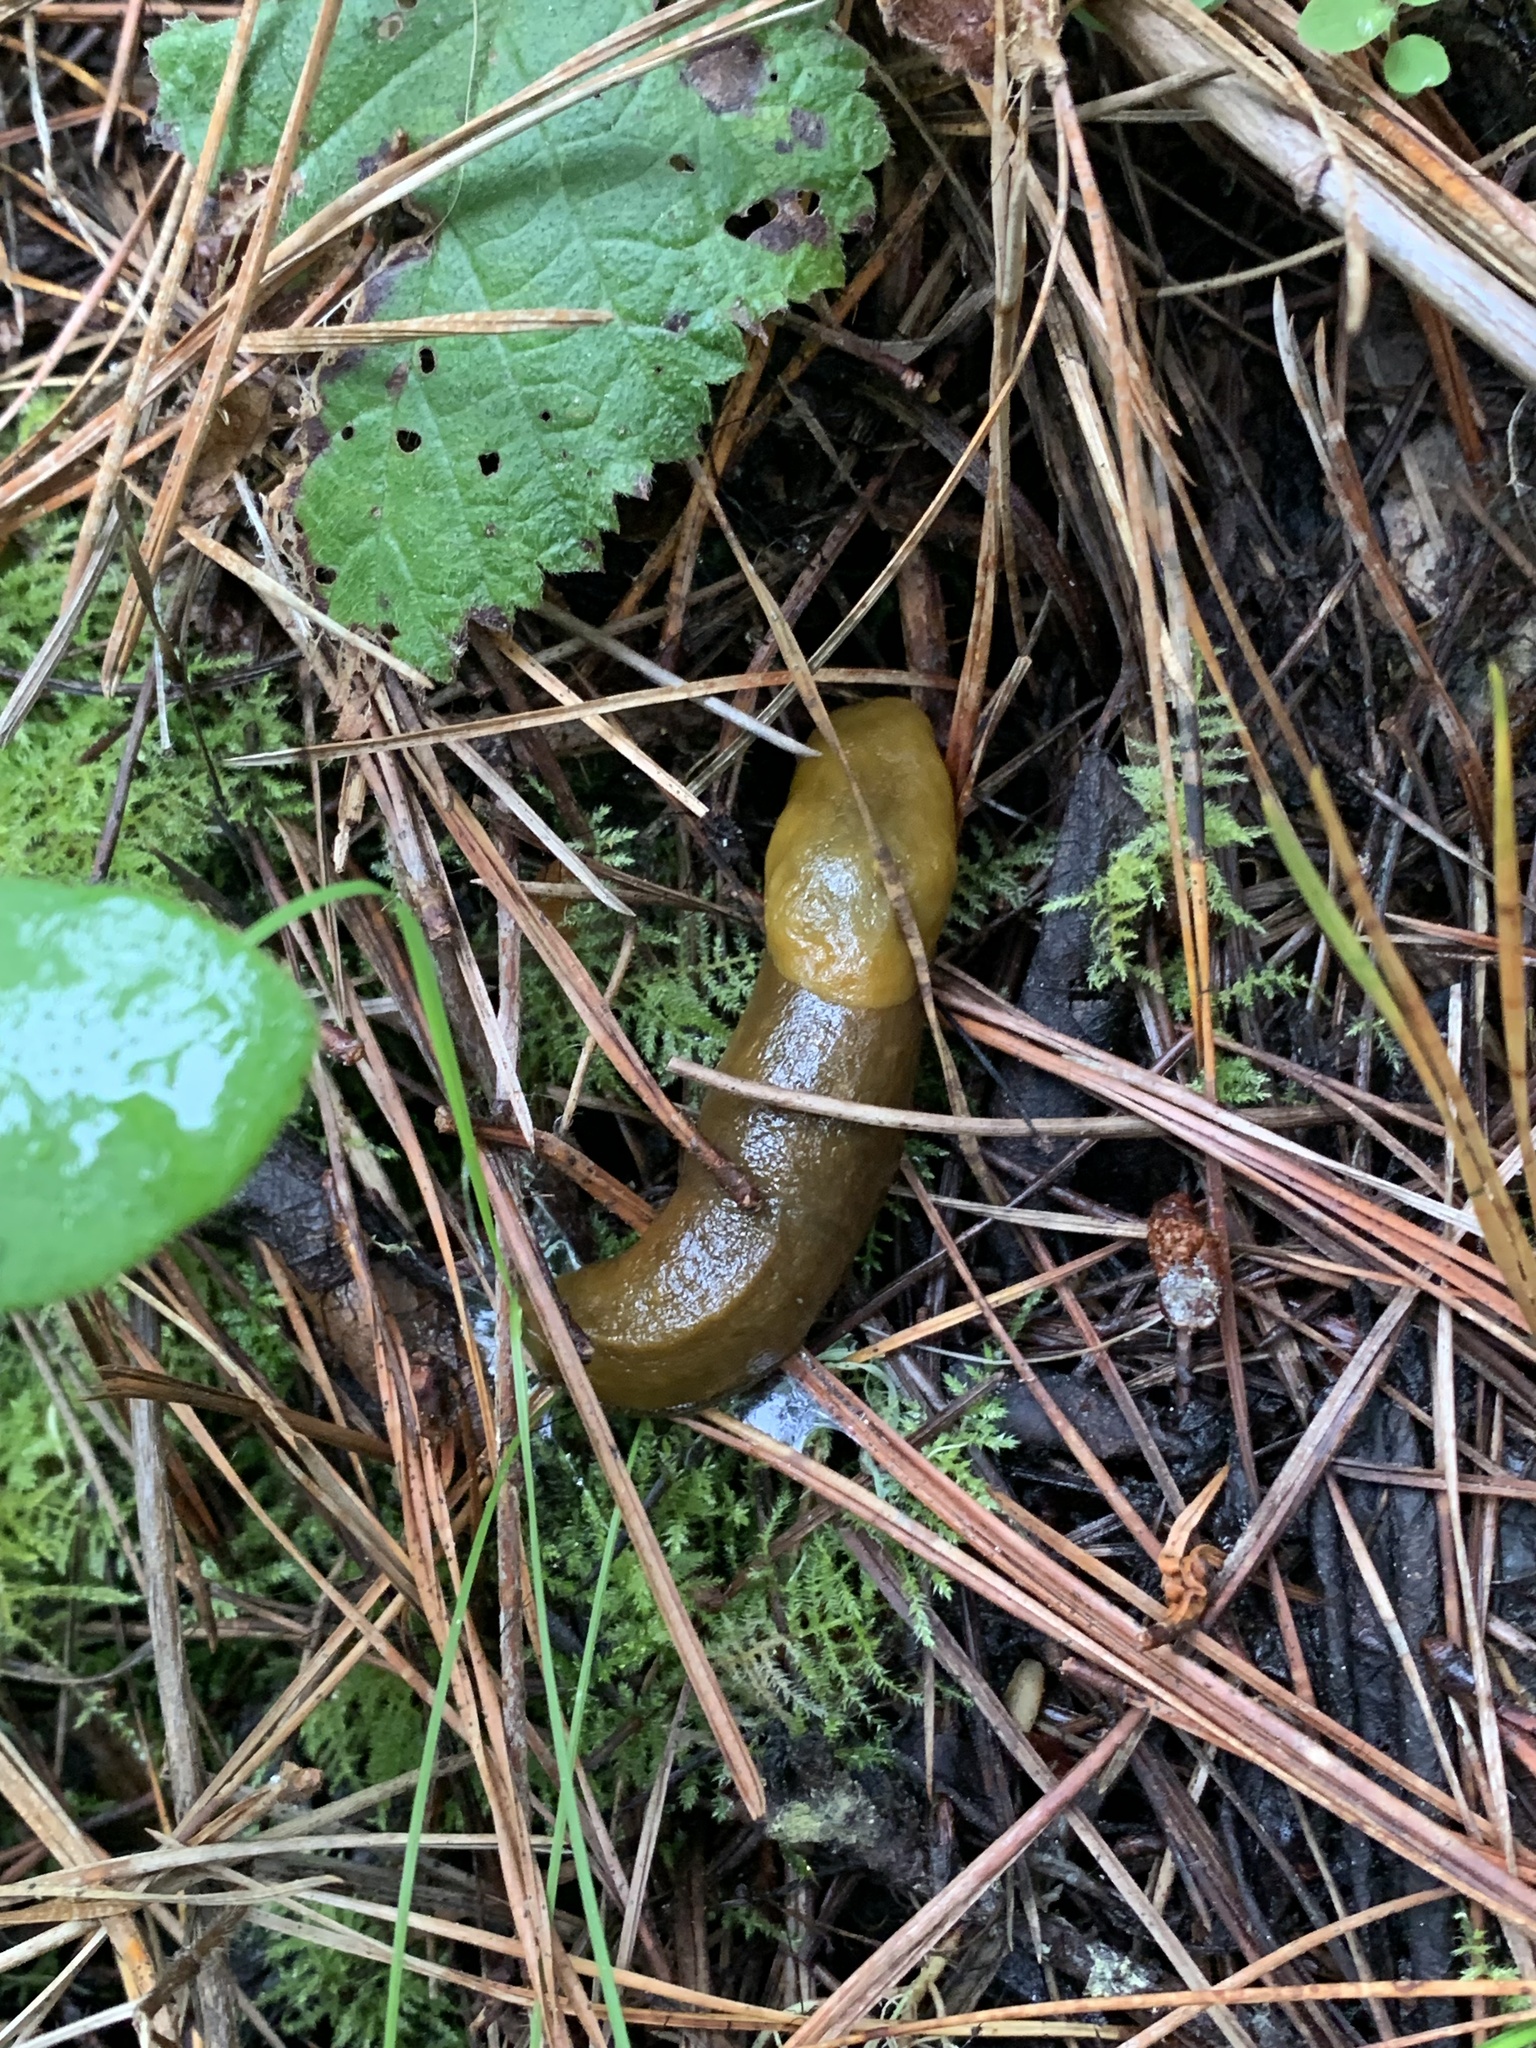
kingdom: Animalia
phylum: Mollusca
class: Gastropoda
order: Stylommatophora
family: Ariolimacidae
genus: Ariolimax
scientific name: Ariolimax
